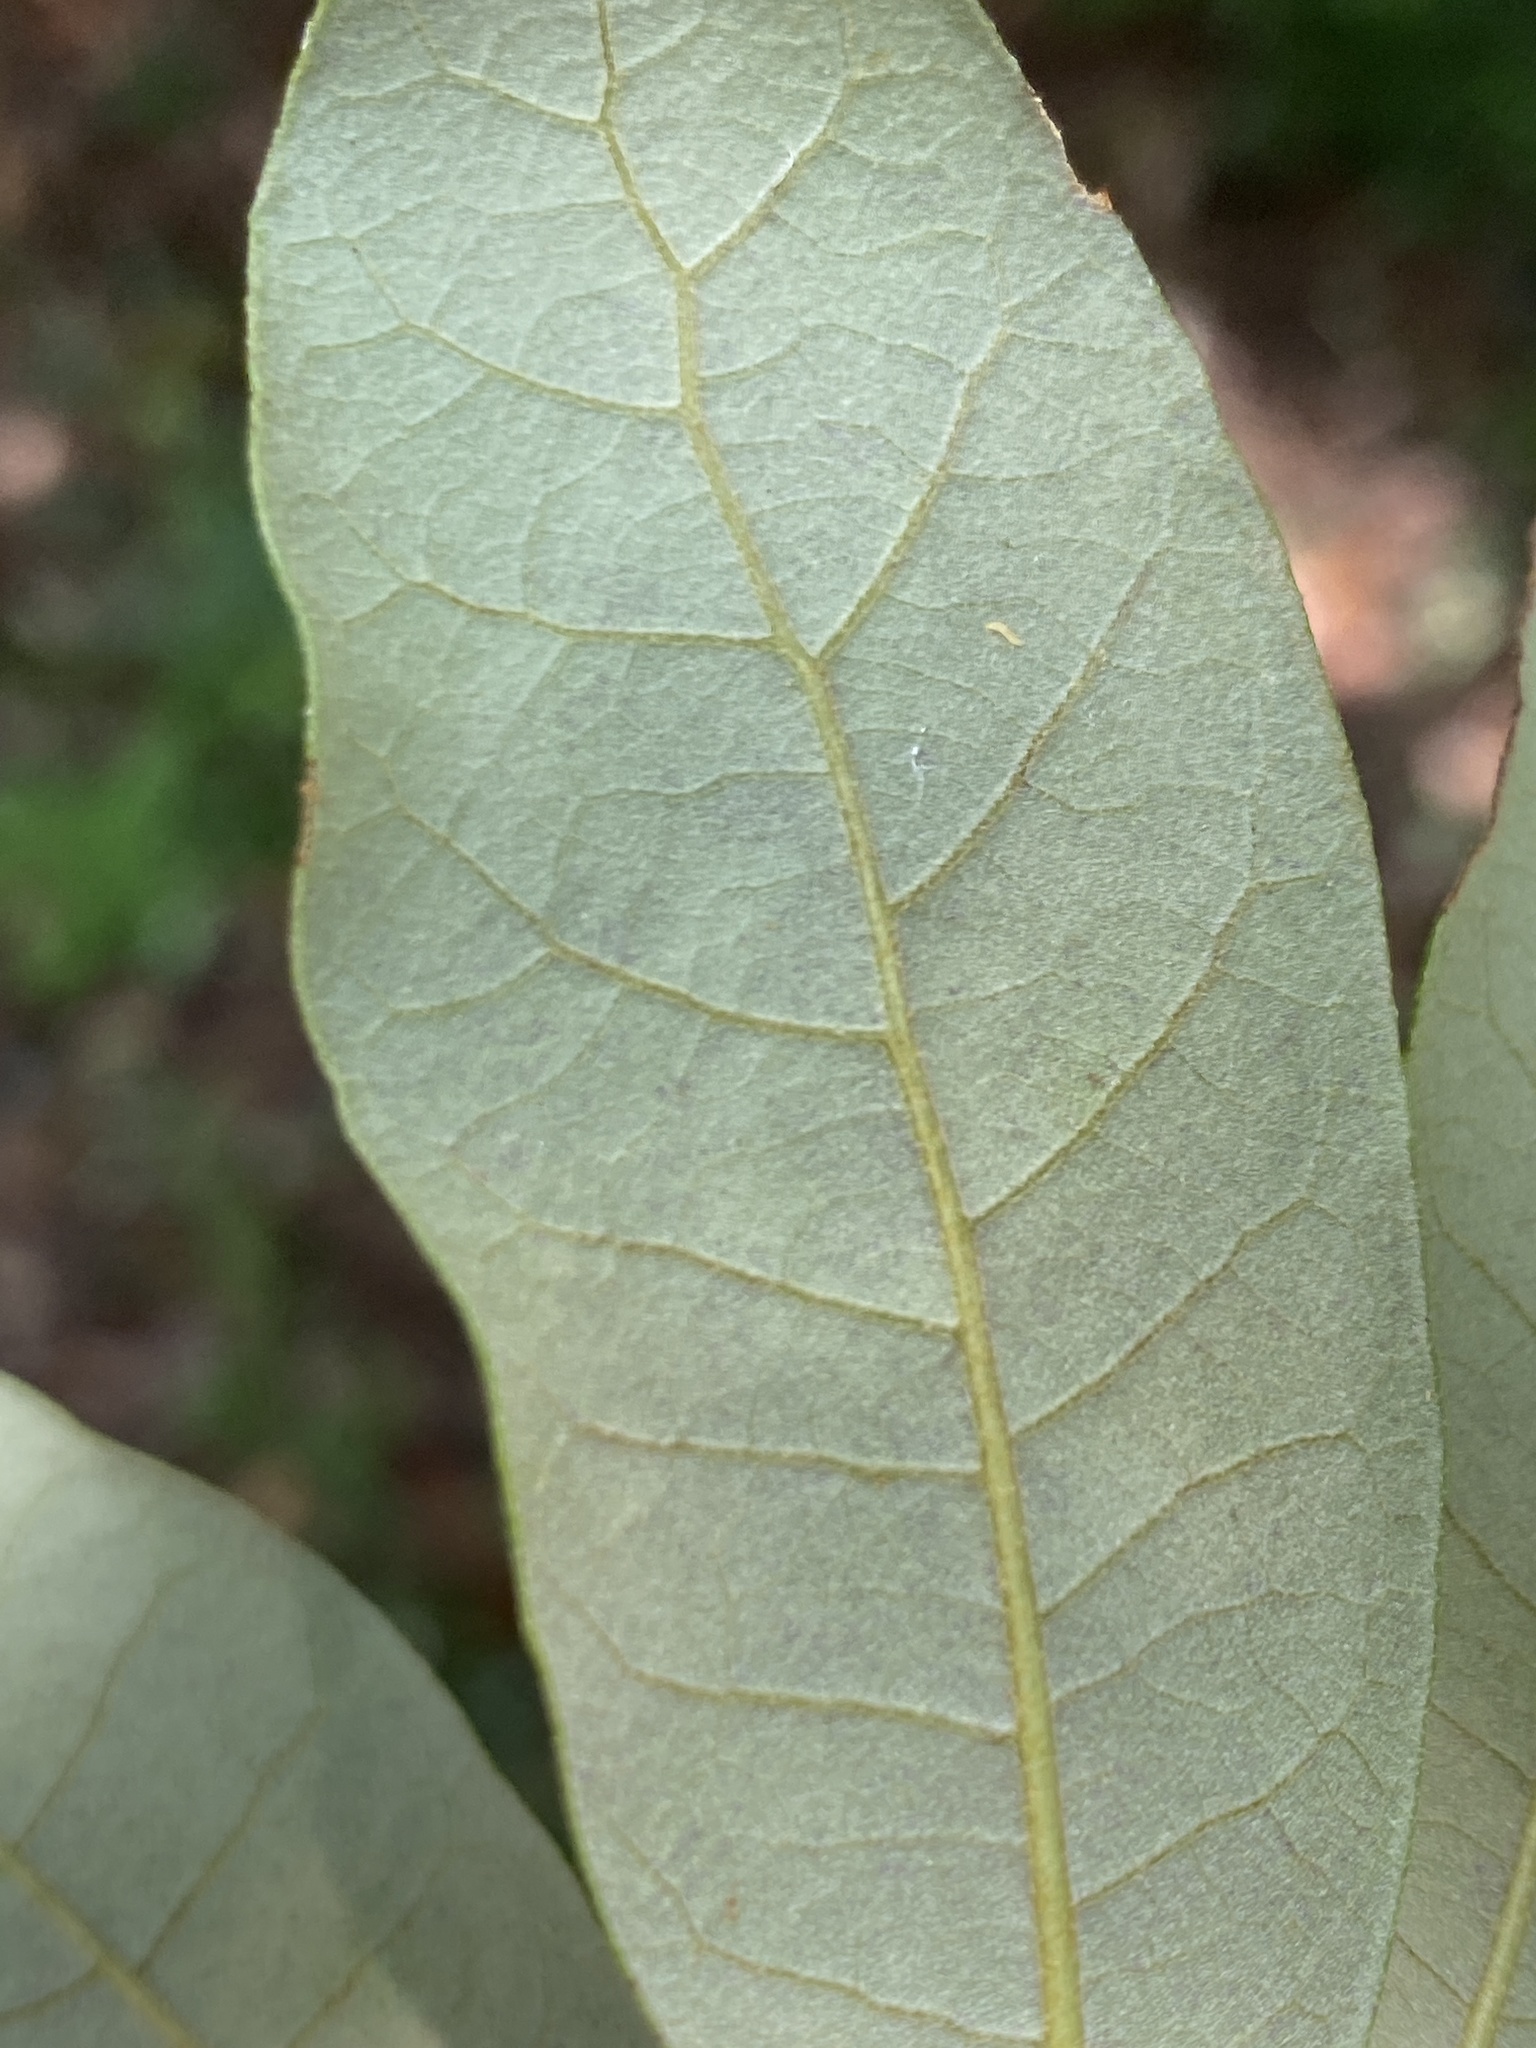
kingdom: Plantae
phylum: Tracheophyta
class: Magnoliopsida
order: Fagales
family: Fagaceae
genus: Quercus
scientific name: Quercus virginiana
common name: Southern live oak
